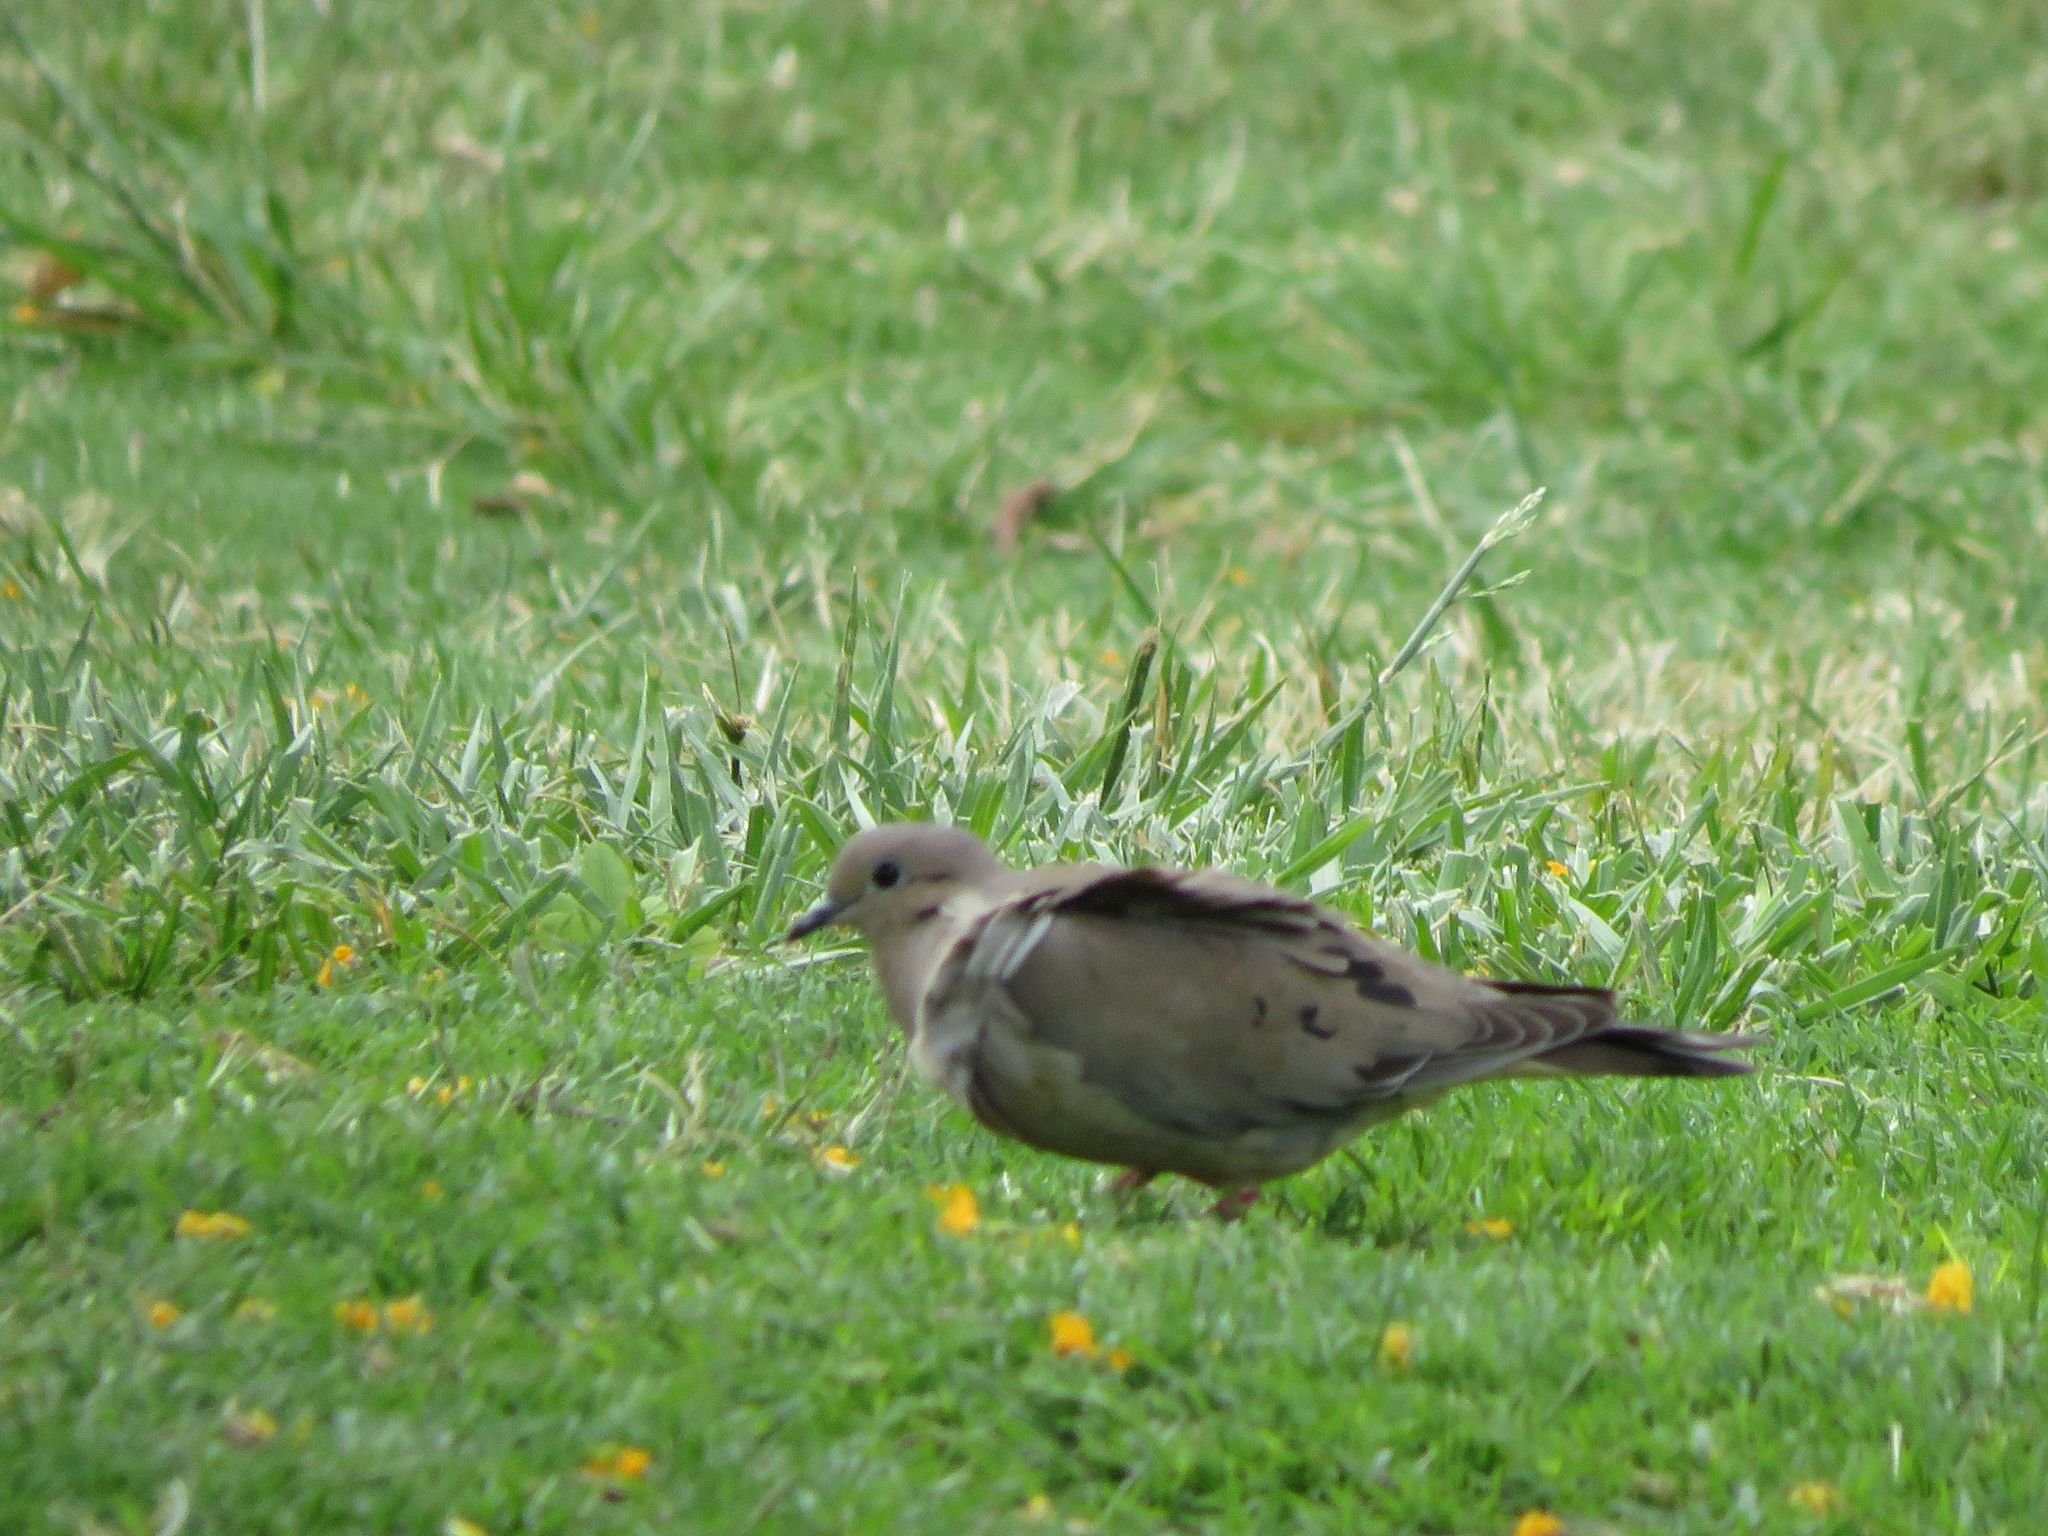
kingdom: Animalia
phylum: Chordata
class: Aves
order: Columbiformes
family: Columbidae
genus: Zenaida
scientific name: Zenaida auriculata
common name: Eared dove
